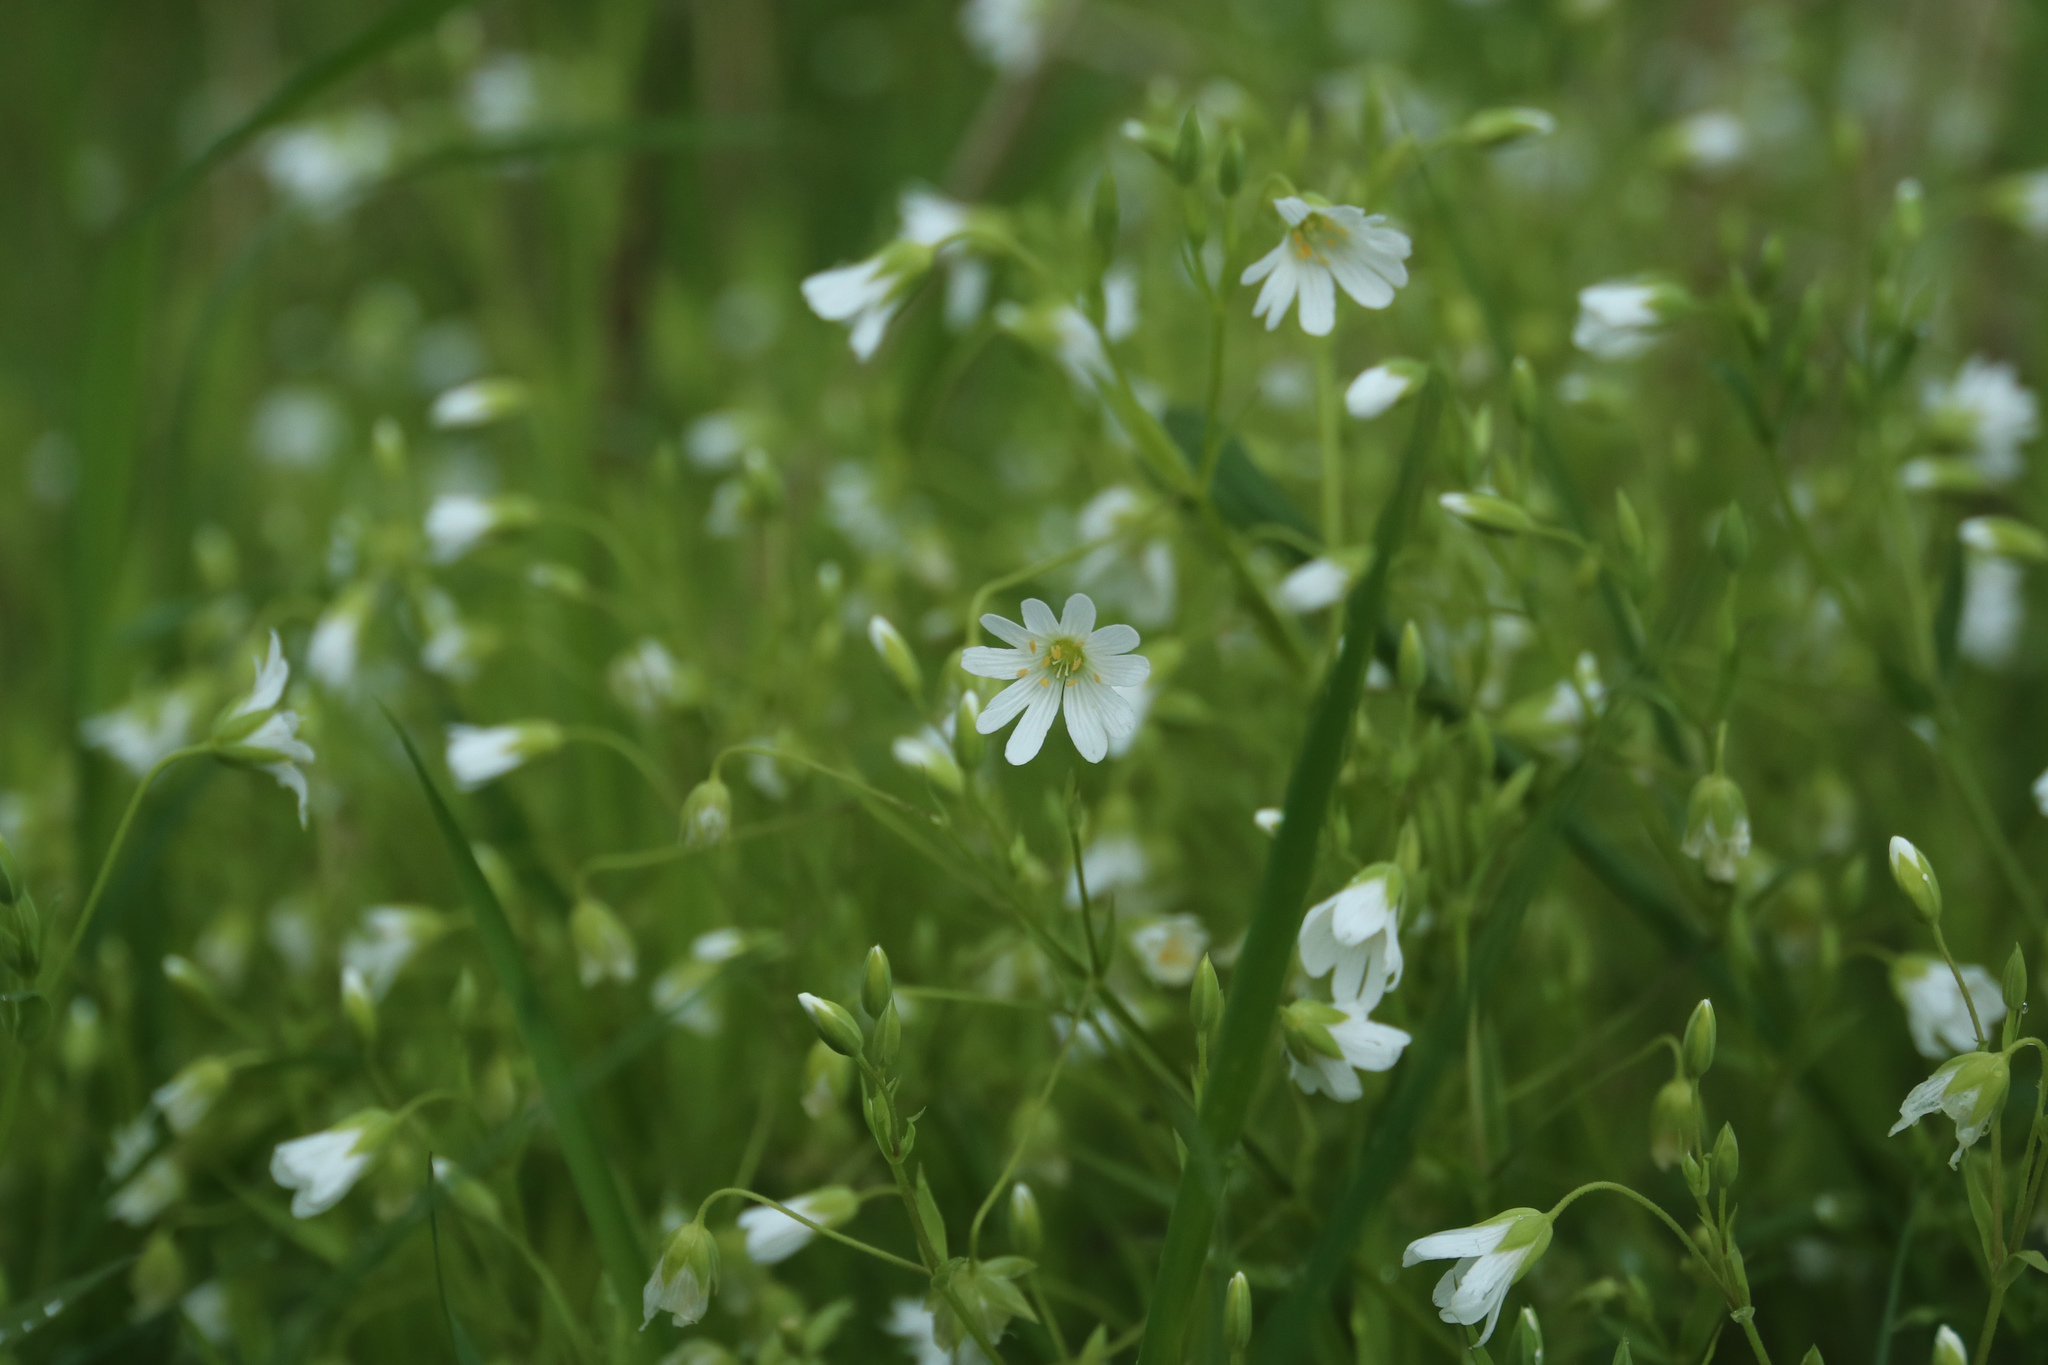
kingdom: Plantae
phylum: Tracheophyta
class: Magnoliopsida
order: Caryophyllales
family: Caryophyllaceae
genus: Rabelera
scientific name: Rabelera holostea
